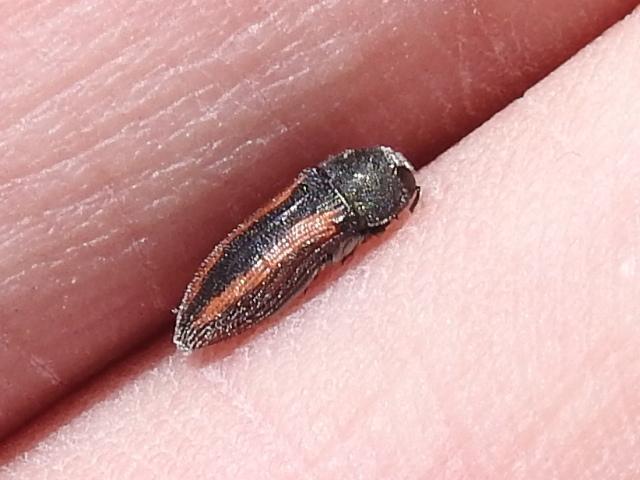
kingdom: Animalia
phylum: Arthropoda
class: Insecta
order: Coleoptera
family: Buprestidae
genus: Acmaeodera
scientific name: Acmaeodera robigo
